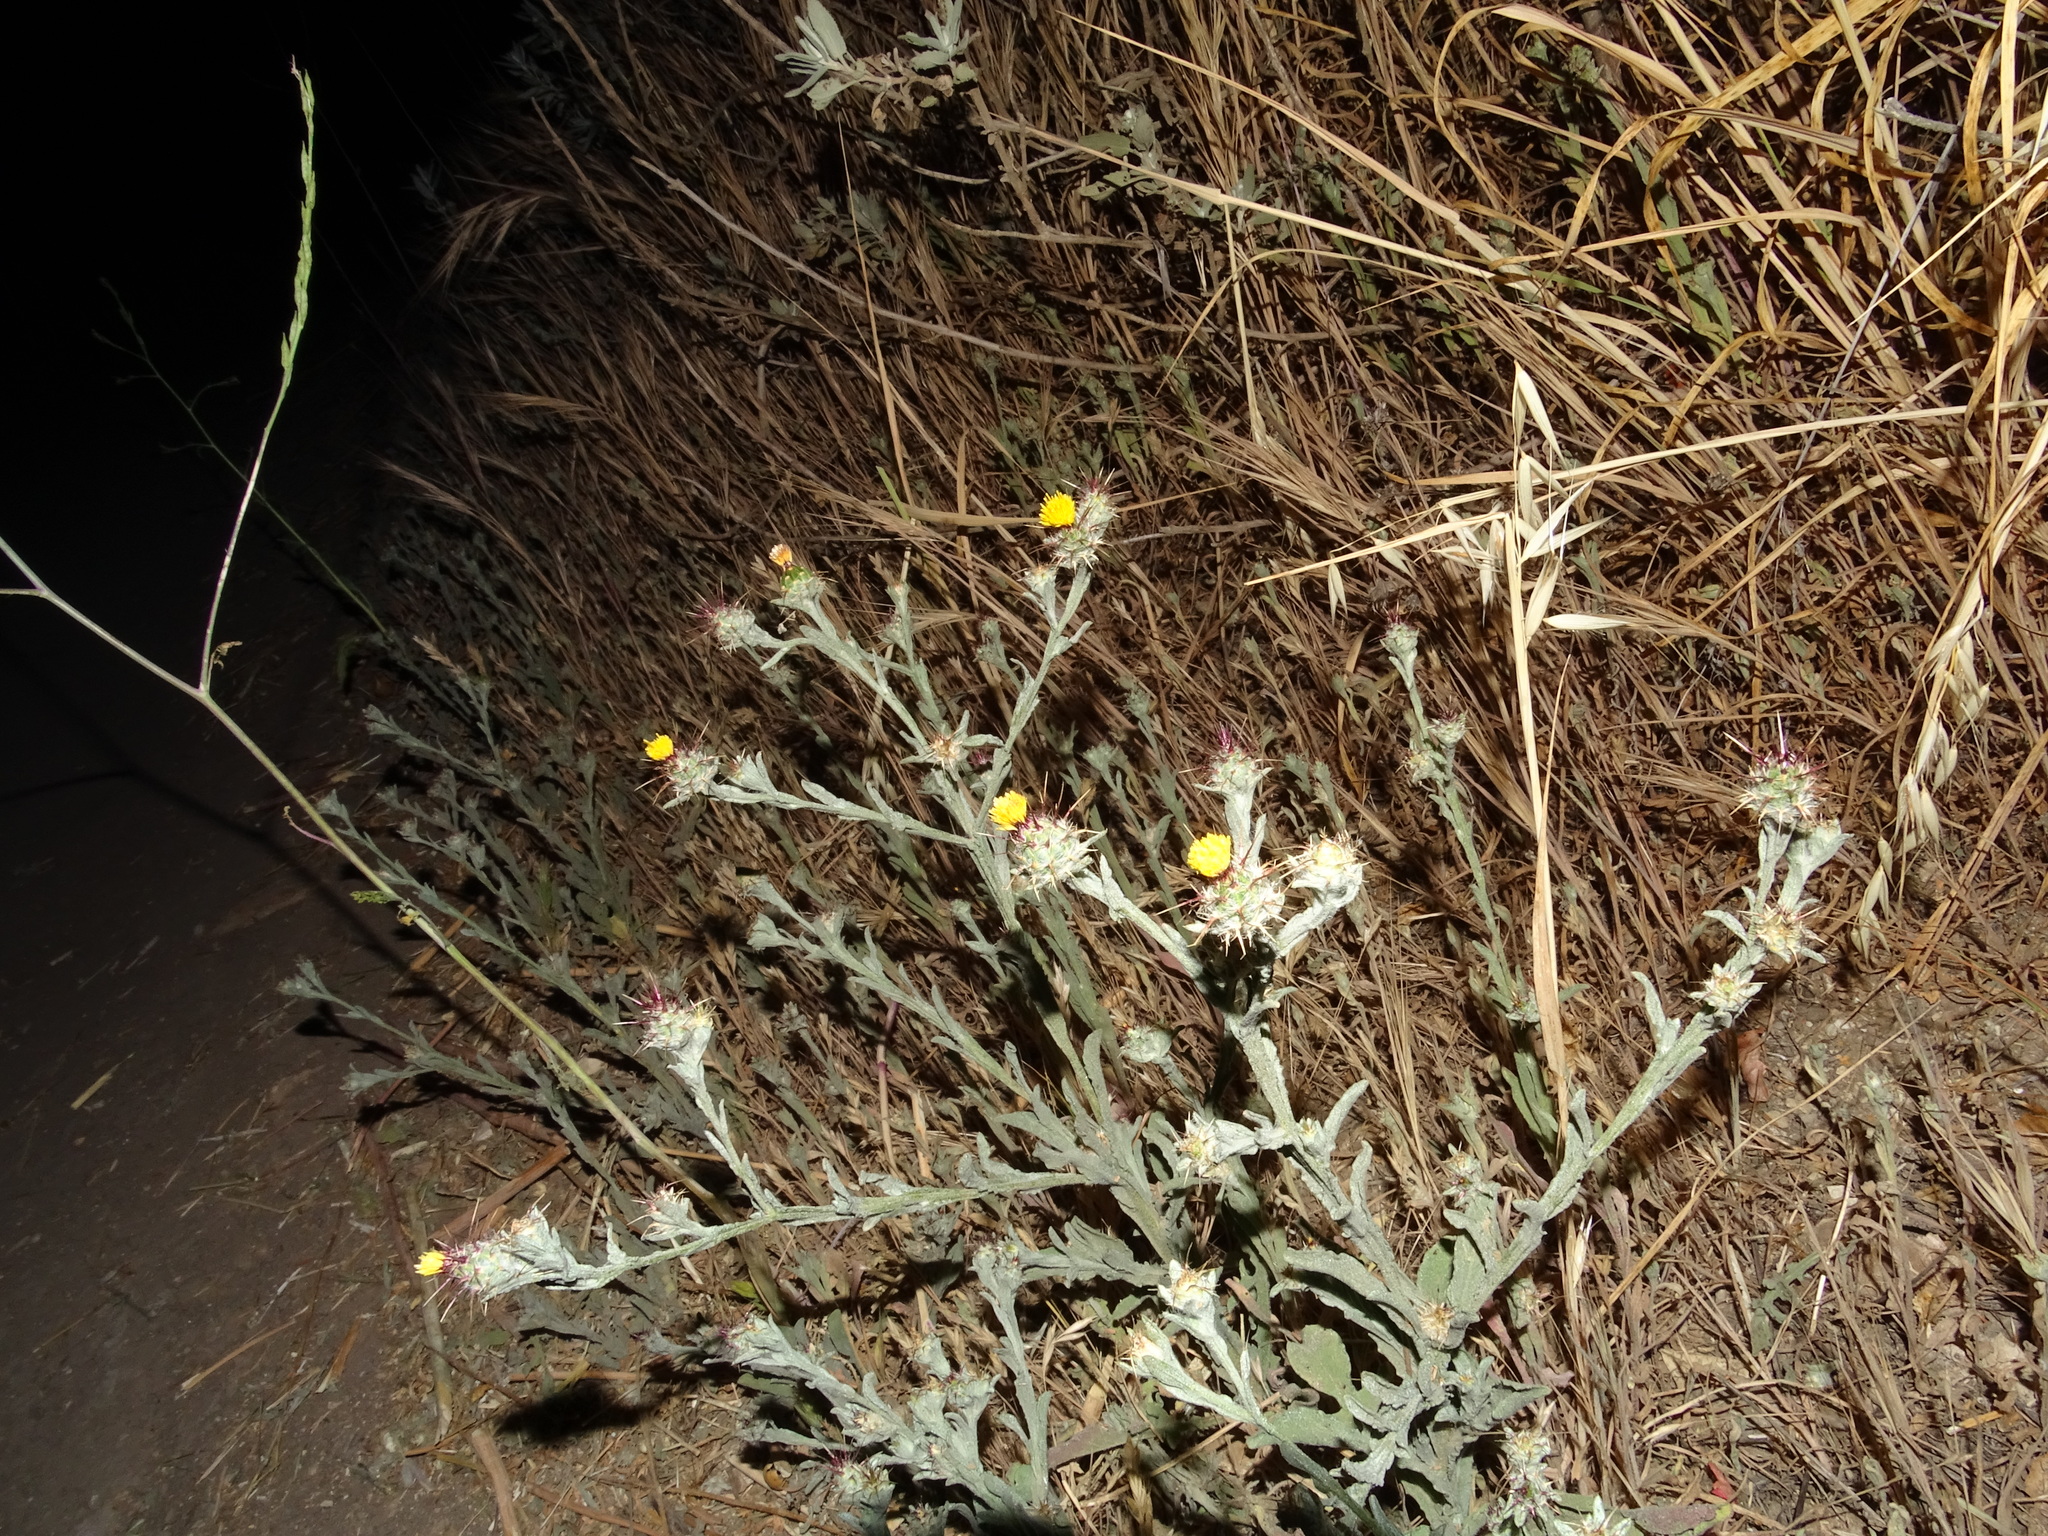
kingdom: Plantae
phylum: Tracheophyta
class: Magnoliopsida
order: Asterales
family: Asteraceae
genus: Centaurea
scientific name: Centaurea melitensis
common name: Maltese star-thistle
